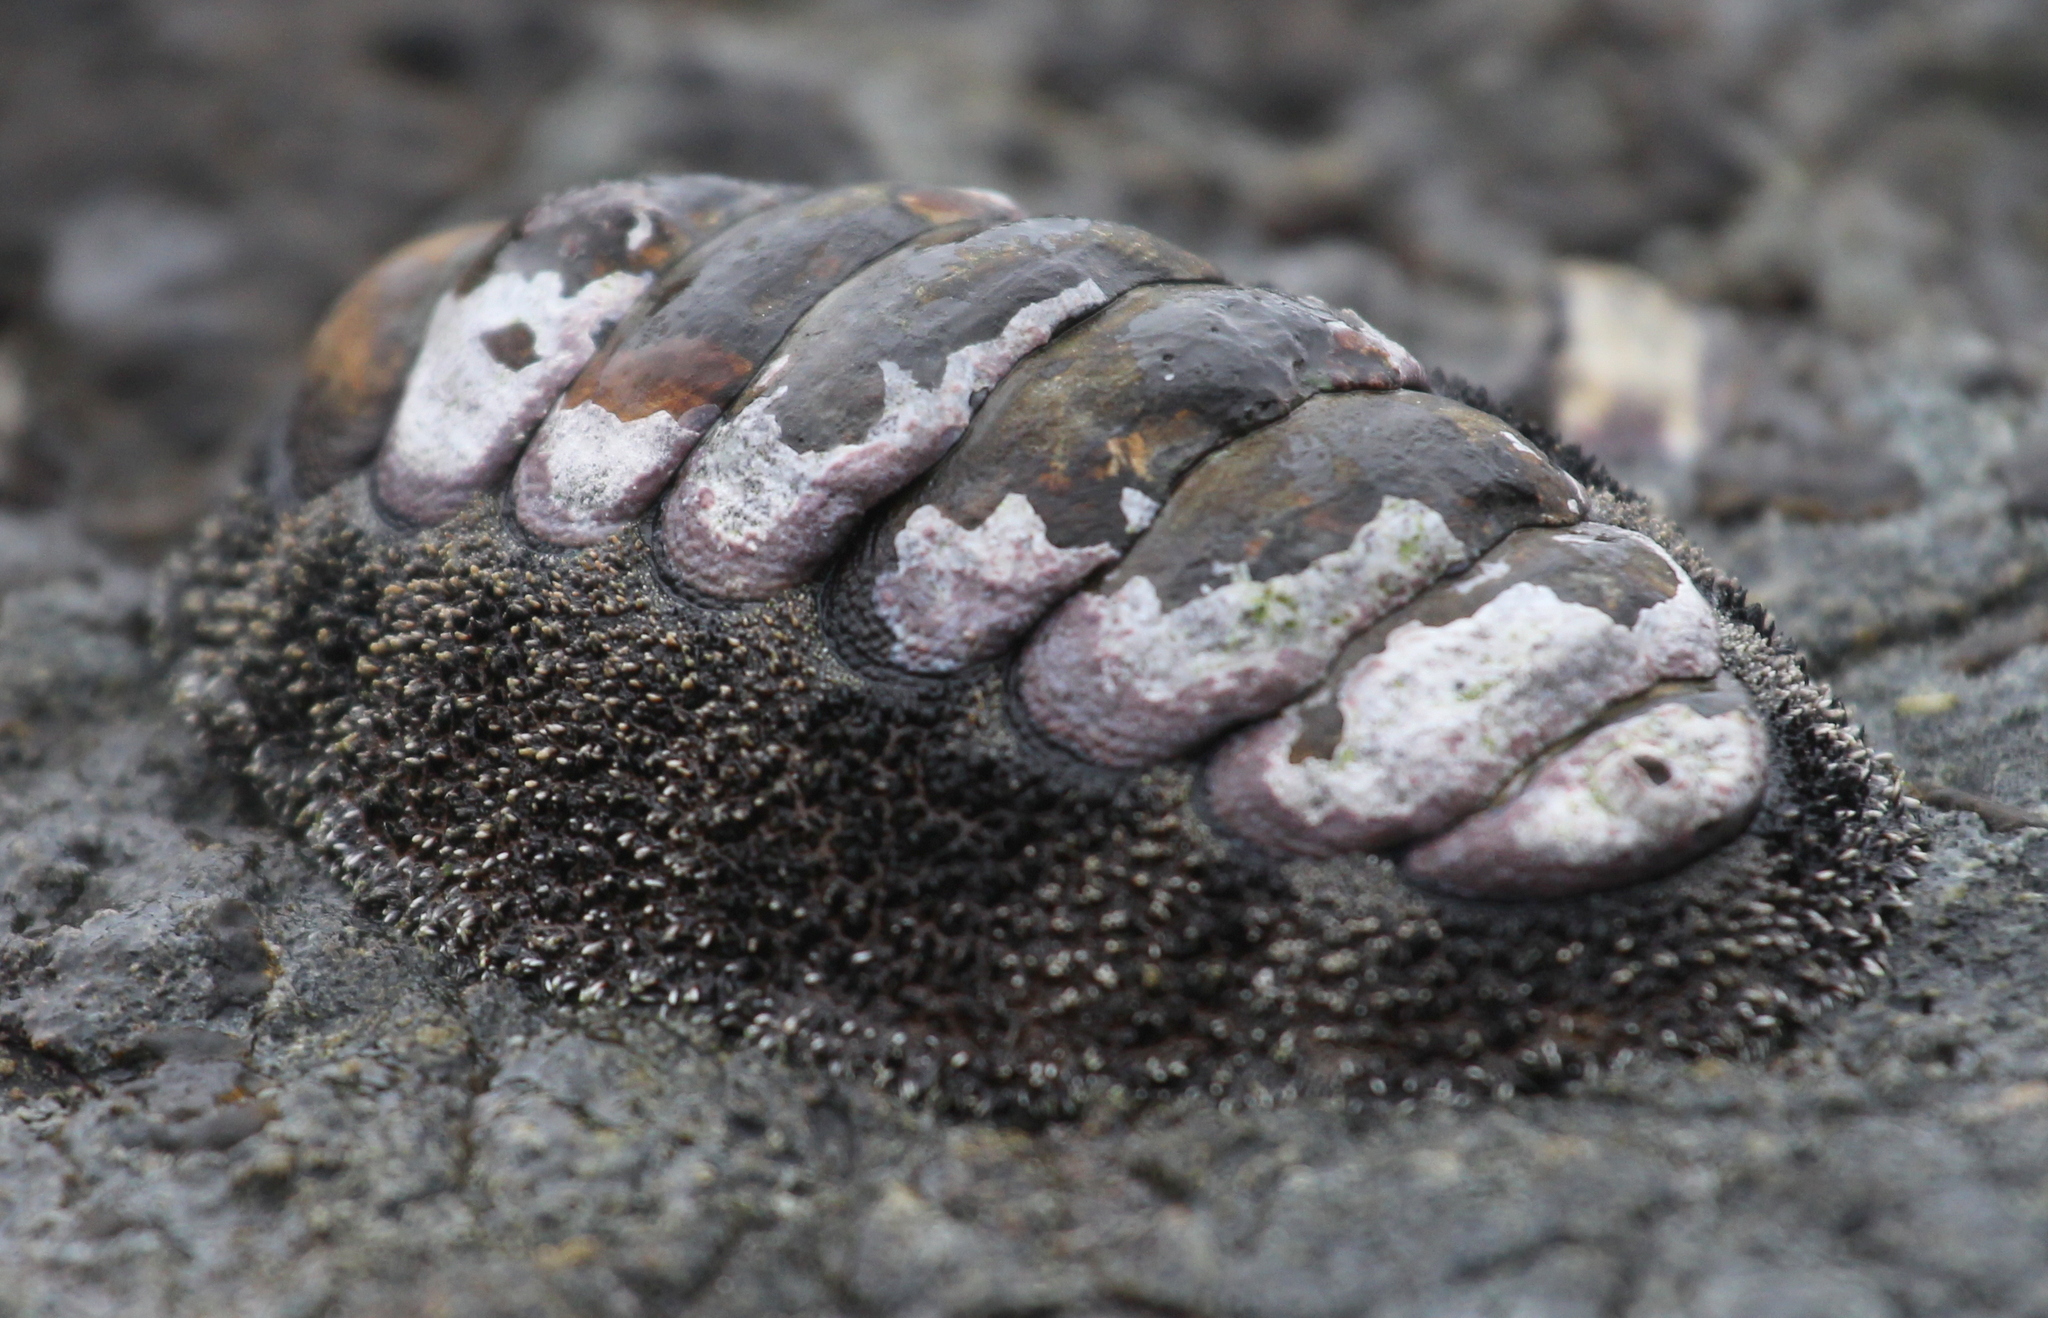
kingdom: Animalia
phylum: Mollusca
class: Polyplacophora
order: Chitonida
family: Chitonidae
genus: Acanthopleura
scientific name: Acanthopleura vaillantii
